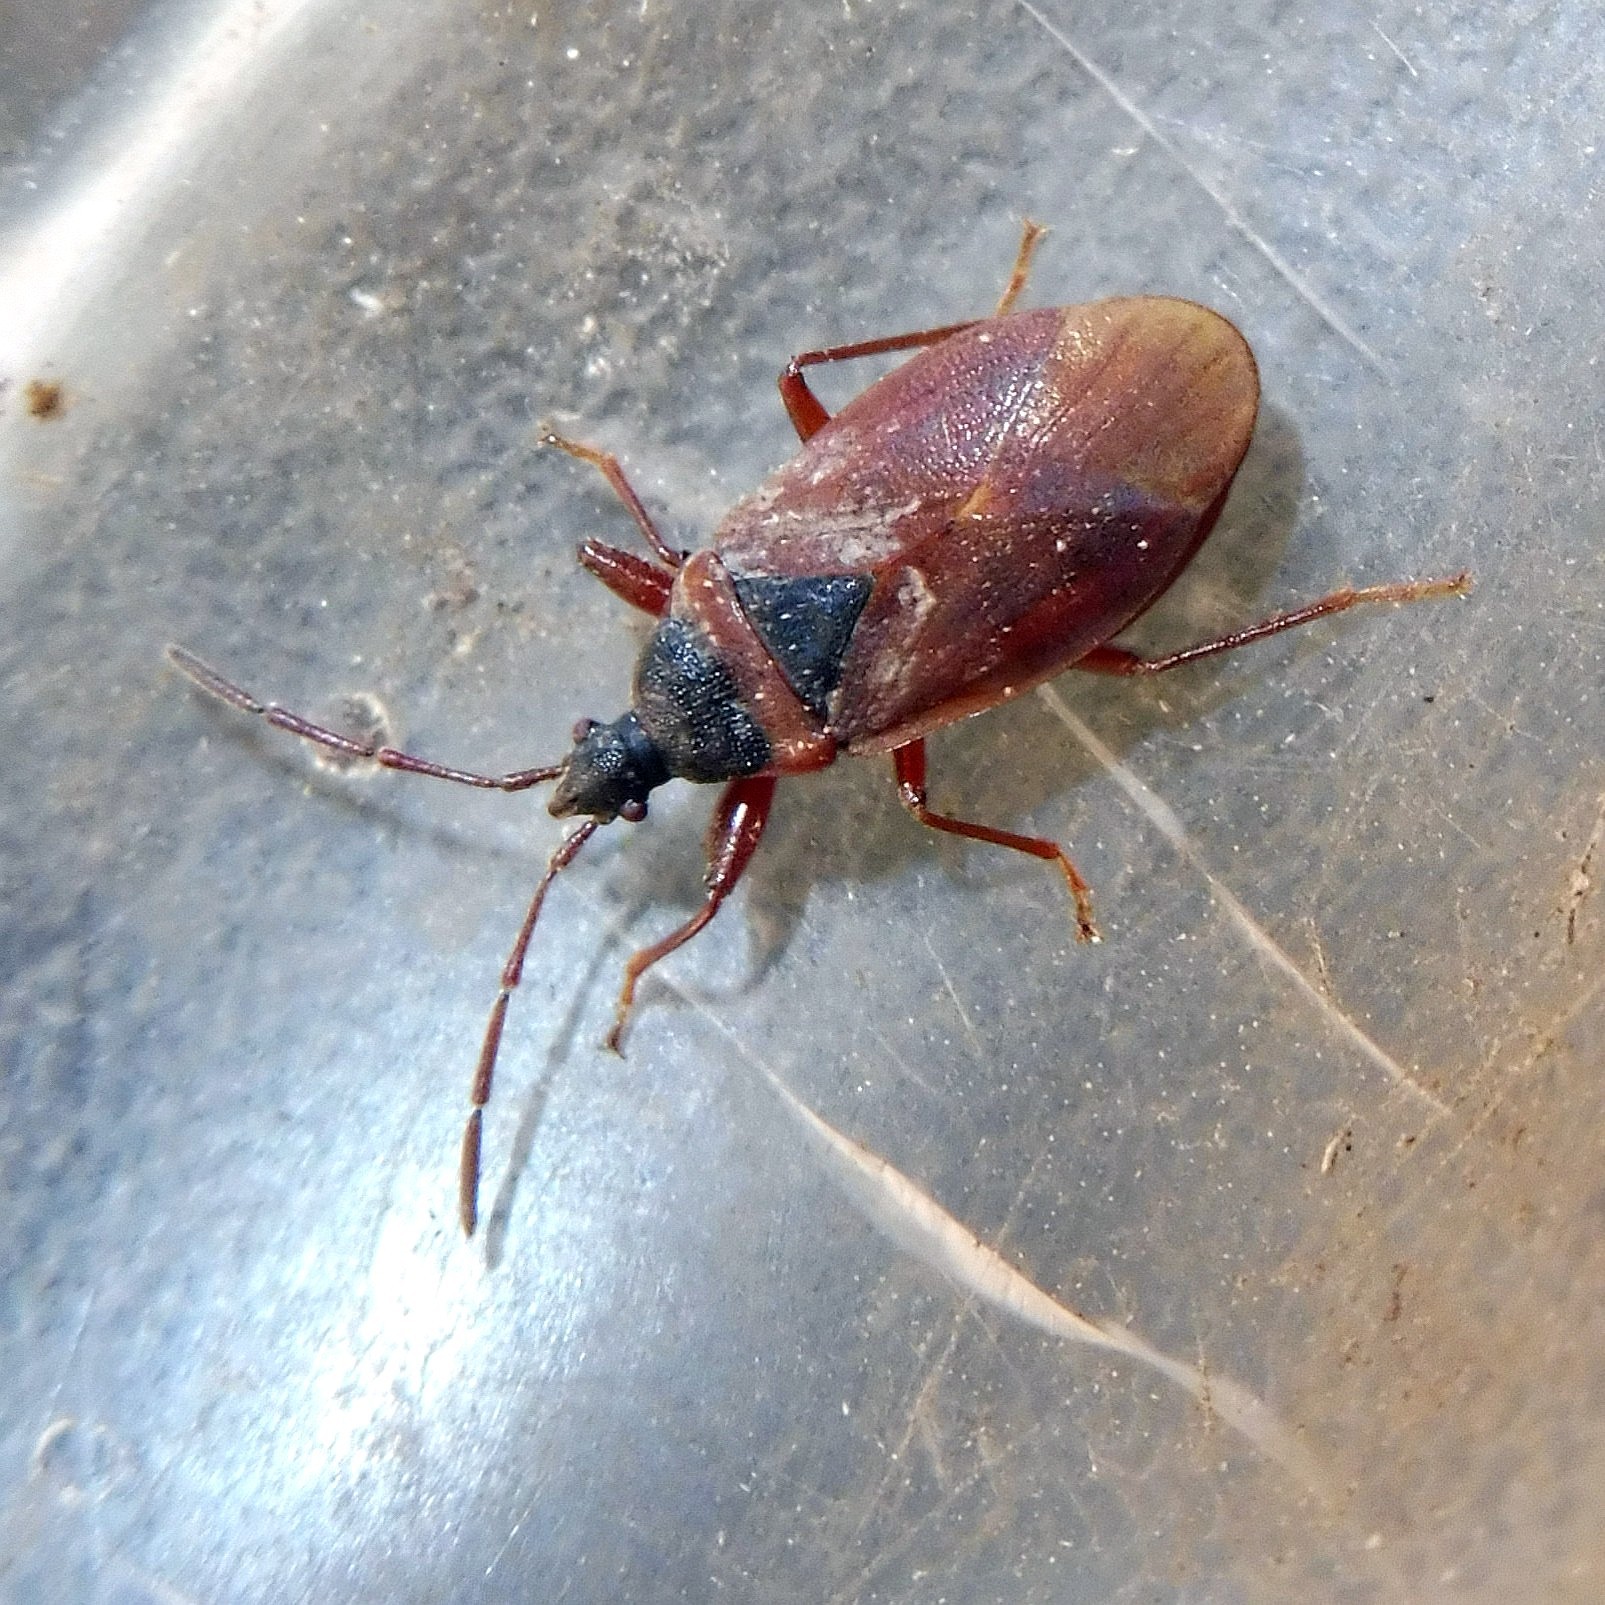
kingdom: Animalia
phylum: Arthropoda
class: Insecta
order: Hemiptera
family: Rhyparochromidae
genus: Gastrodes
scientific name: Gastrodes grossipes
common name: Pine cone bug
